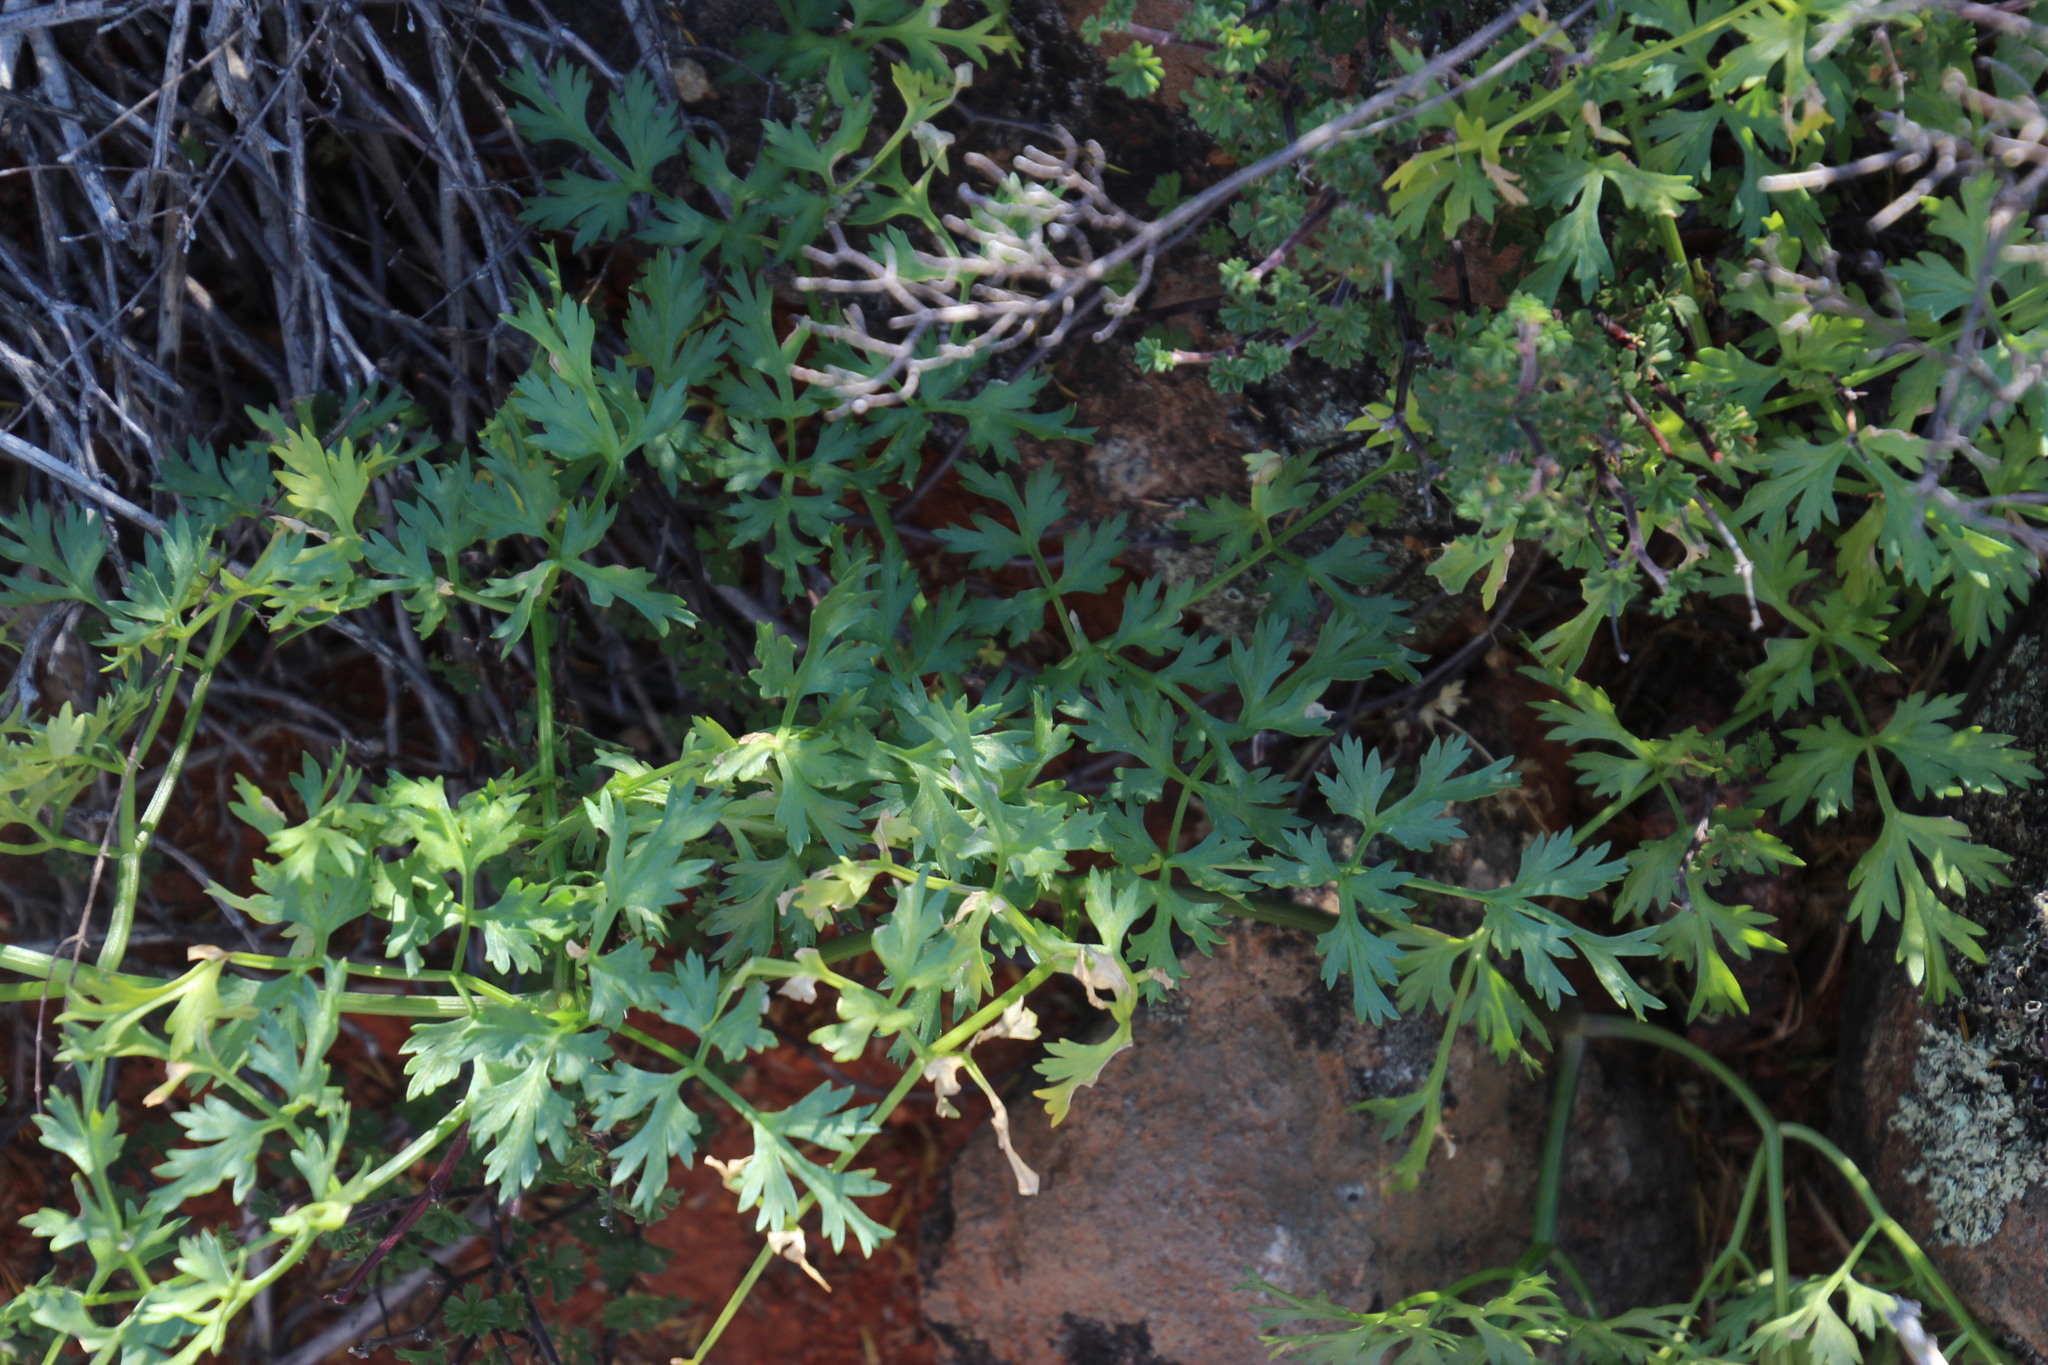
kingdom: Plantae
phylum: Tracheophyta
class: Magnoliopsida
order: Apiales
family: Apiaceae
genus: Cynorhiza
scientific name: Cynorhiza typica
